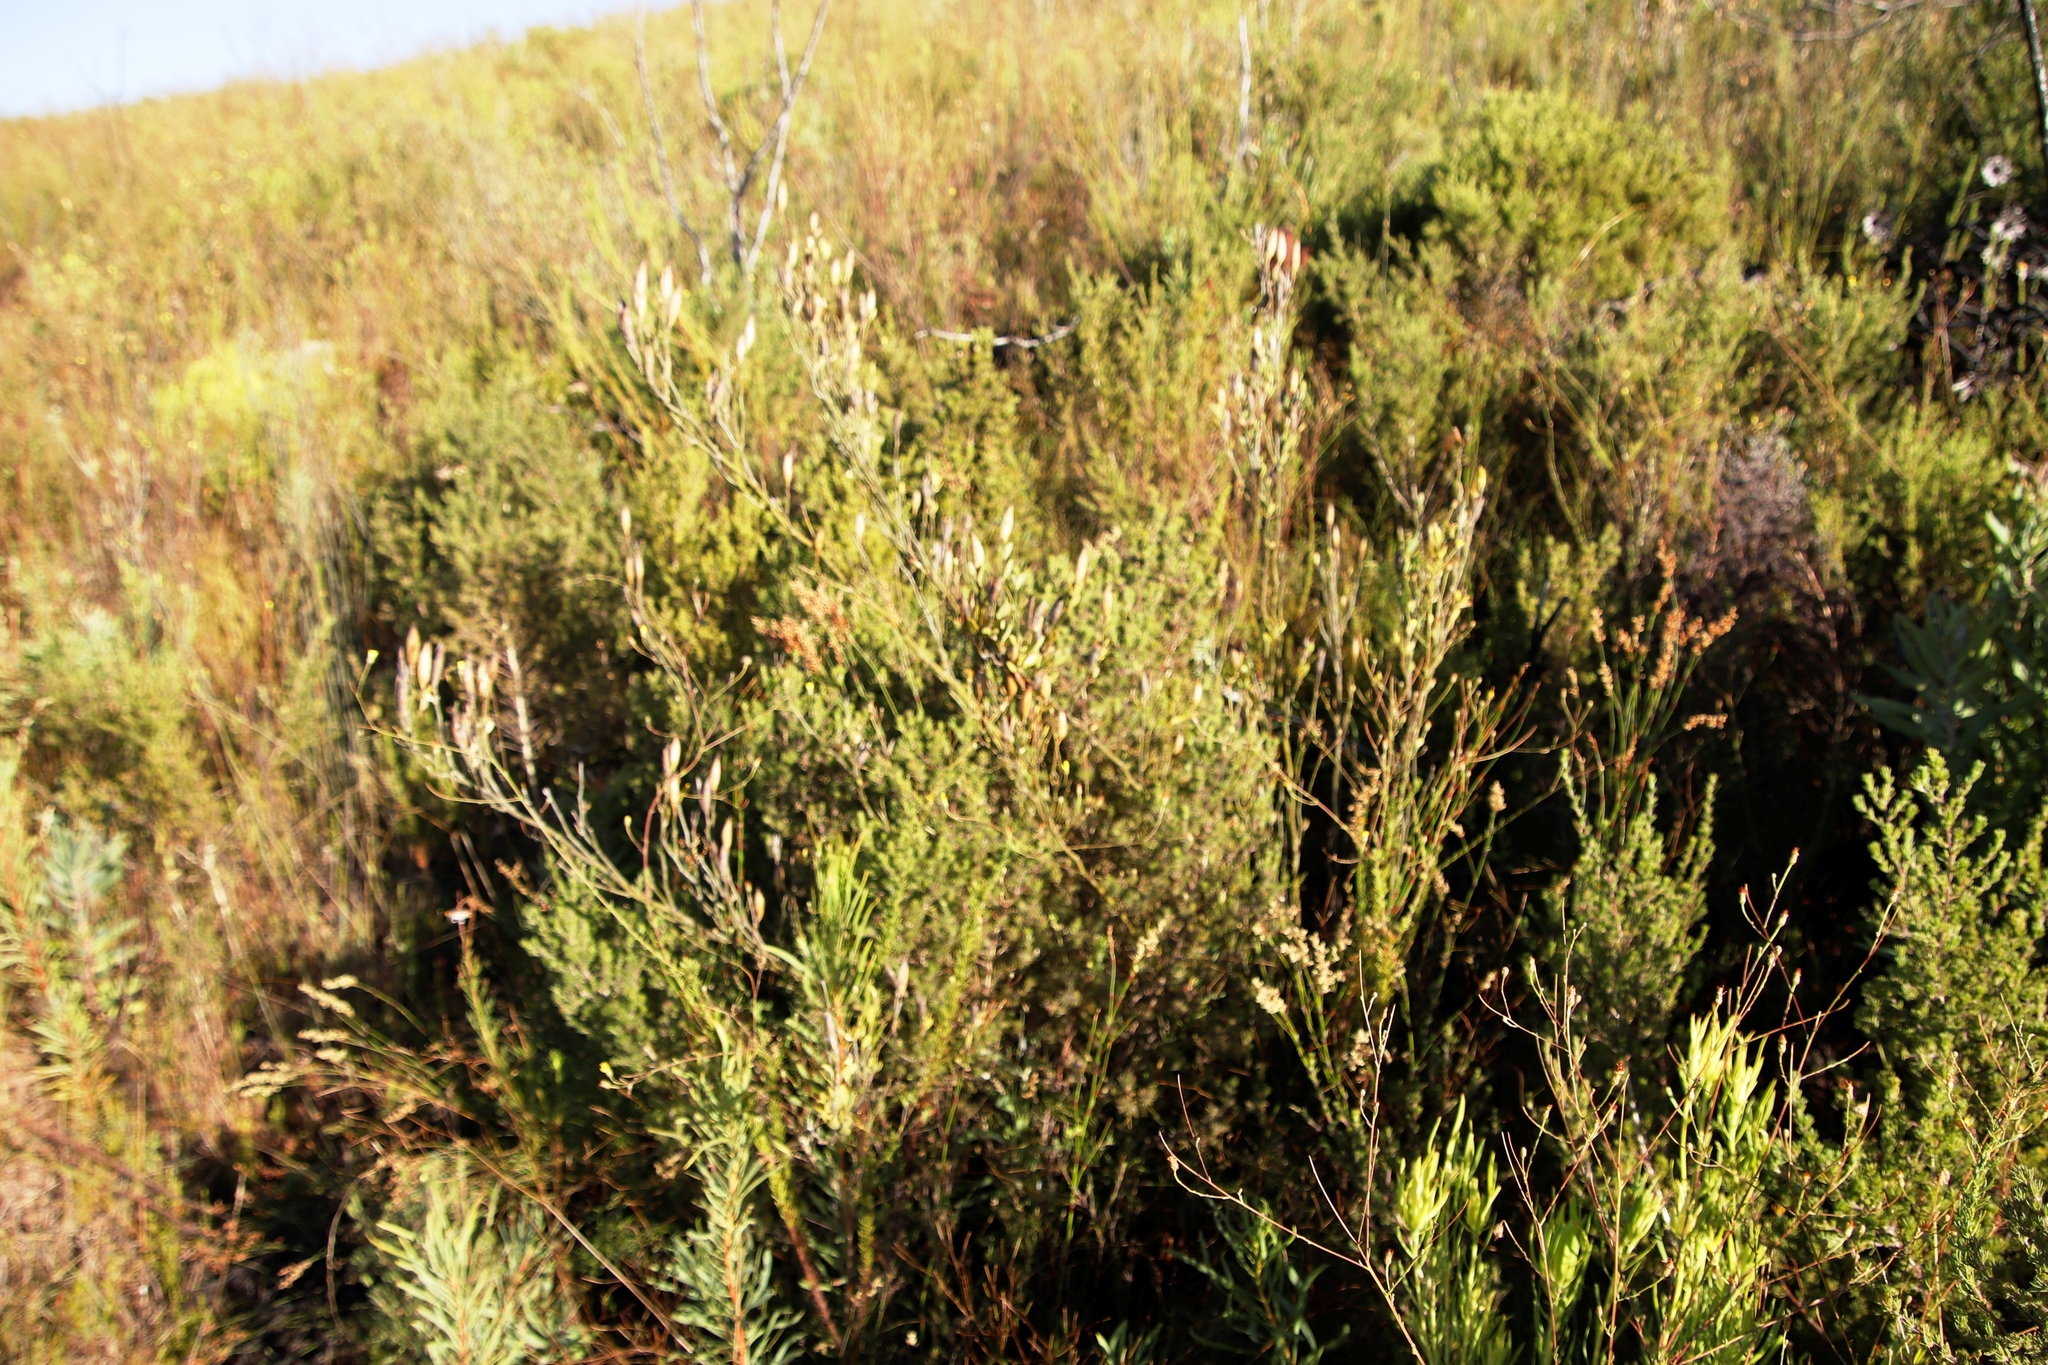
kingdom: Plantae
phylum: Tracheophyta
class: Magnoliopsida
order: Solanales
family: Montiniaceae
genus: Montinia
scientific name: Montinia caryophyllacea
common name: Wild clove-bush
